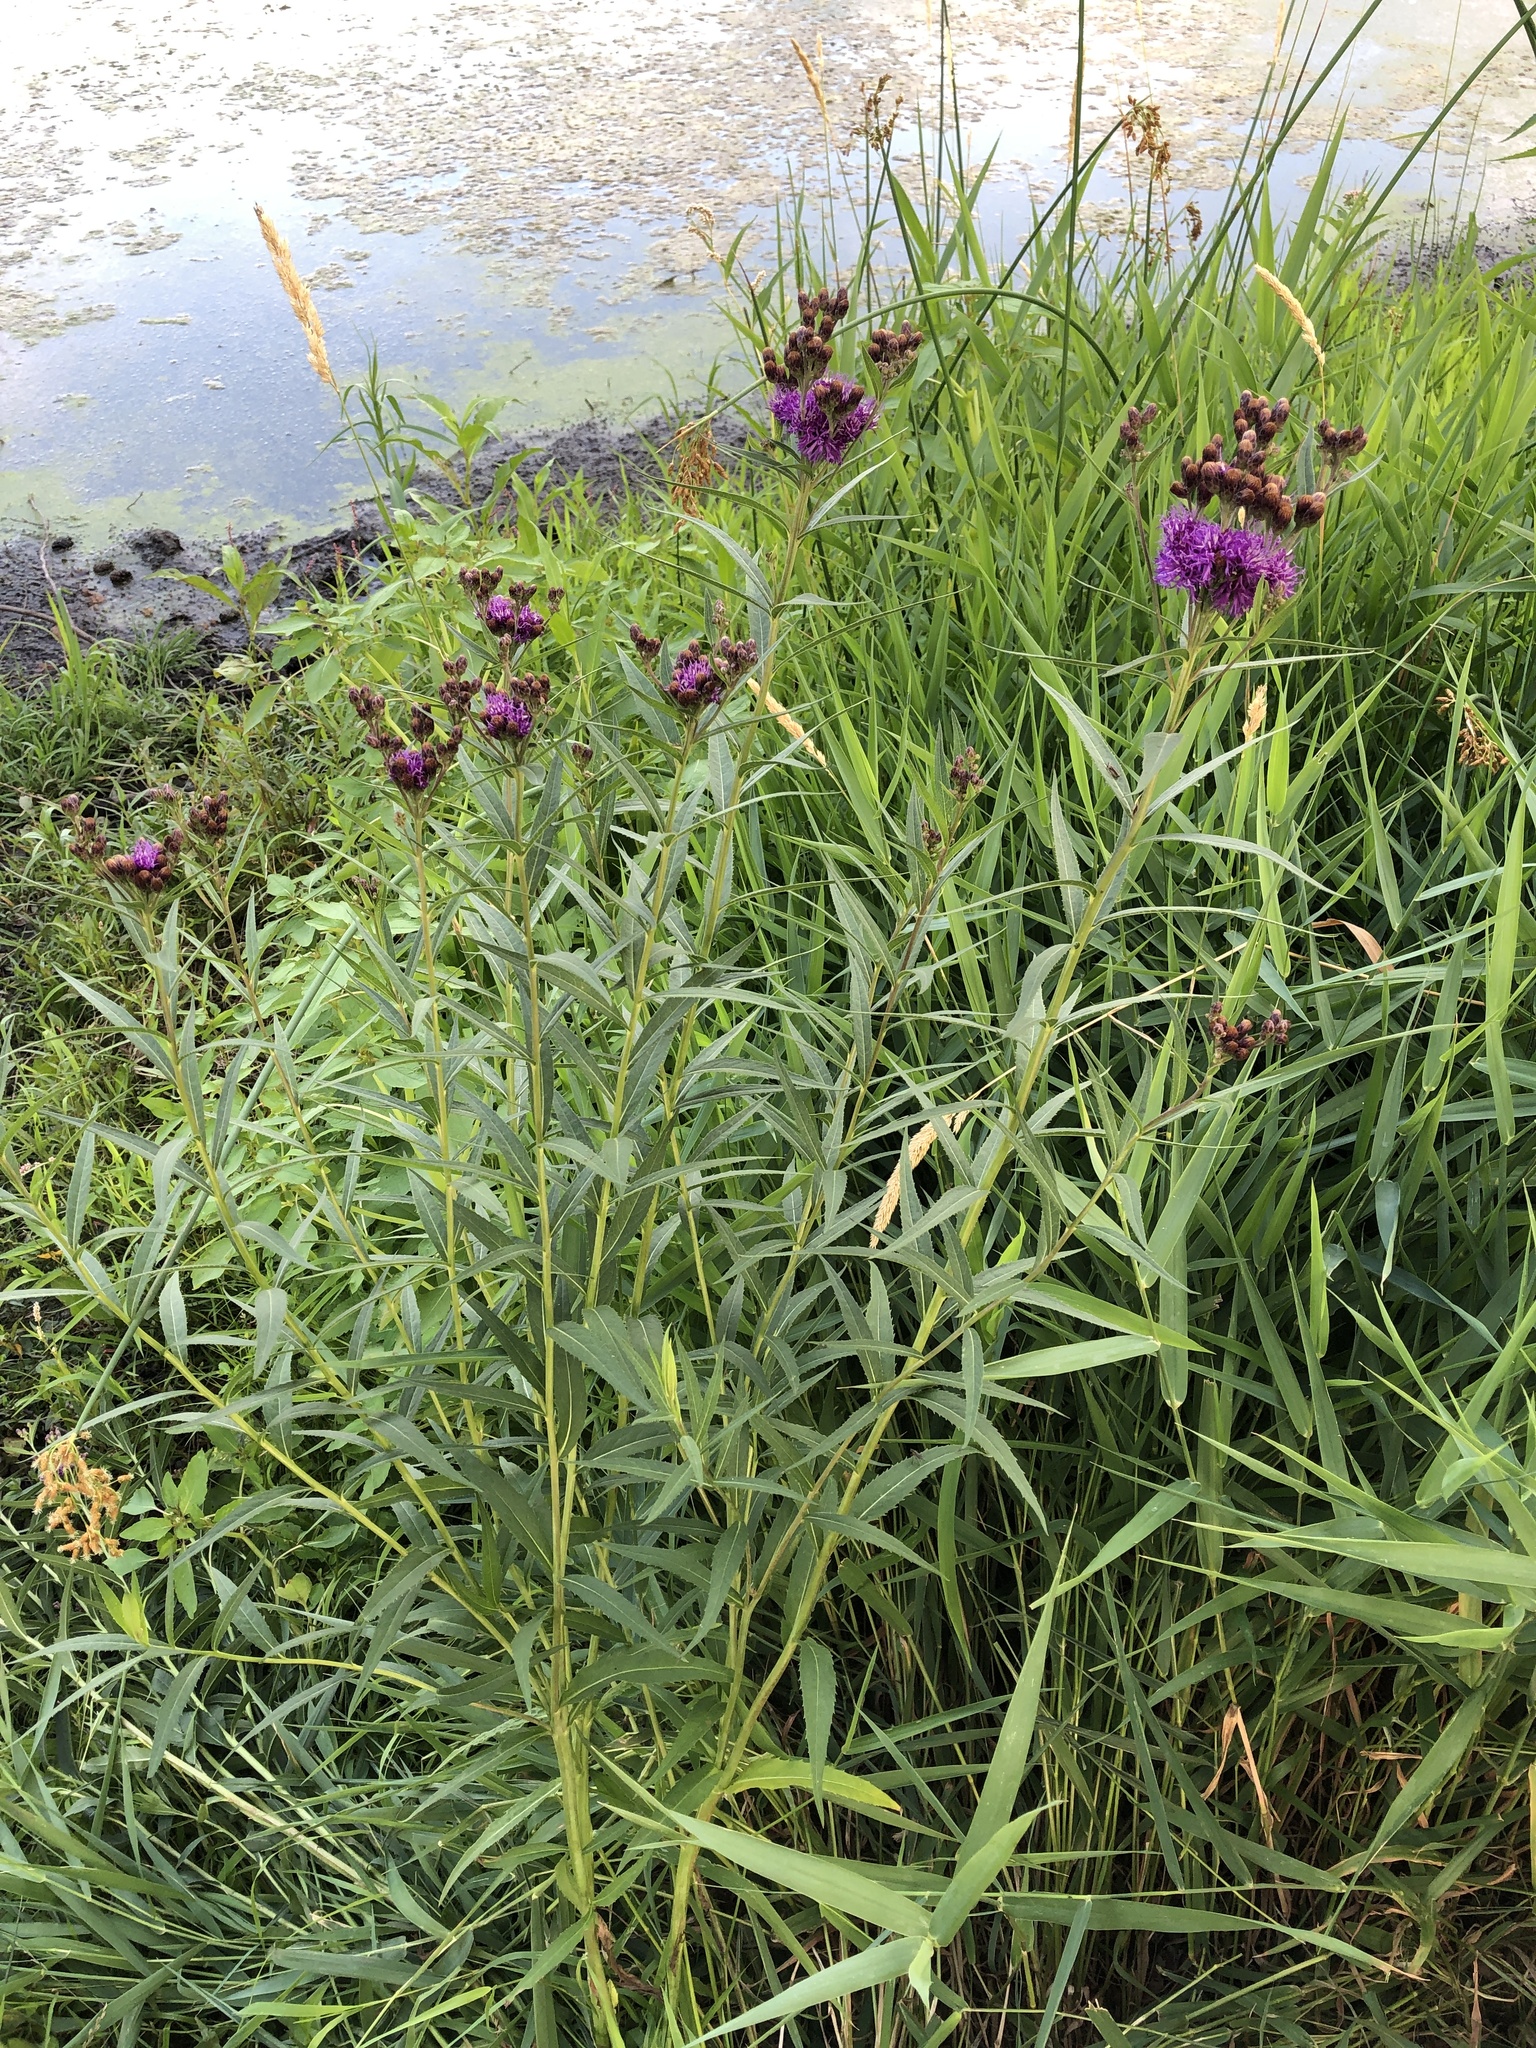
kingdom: Plantae
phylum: Tracheophyta
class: Magnoliopsida
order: Asterales
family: Asteraceae
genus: Vernonia
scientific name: Vernonia fasciculata
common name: Fascicled ironweed
